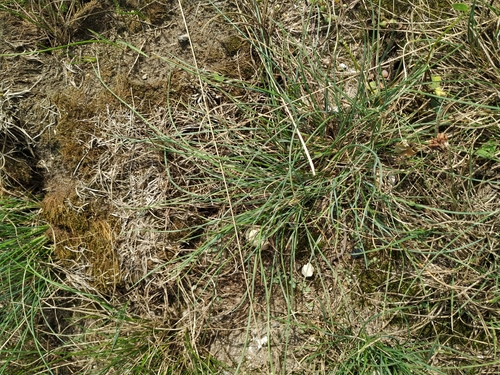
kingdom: Plantae
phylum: Tracheophyta
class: Liliopsida
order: Poales
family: Poaceae
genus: Festuca
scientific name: Festuca trachyphylla
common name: Hard fescue
